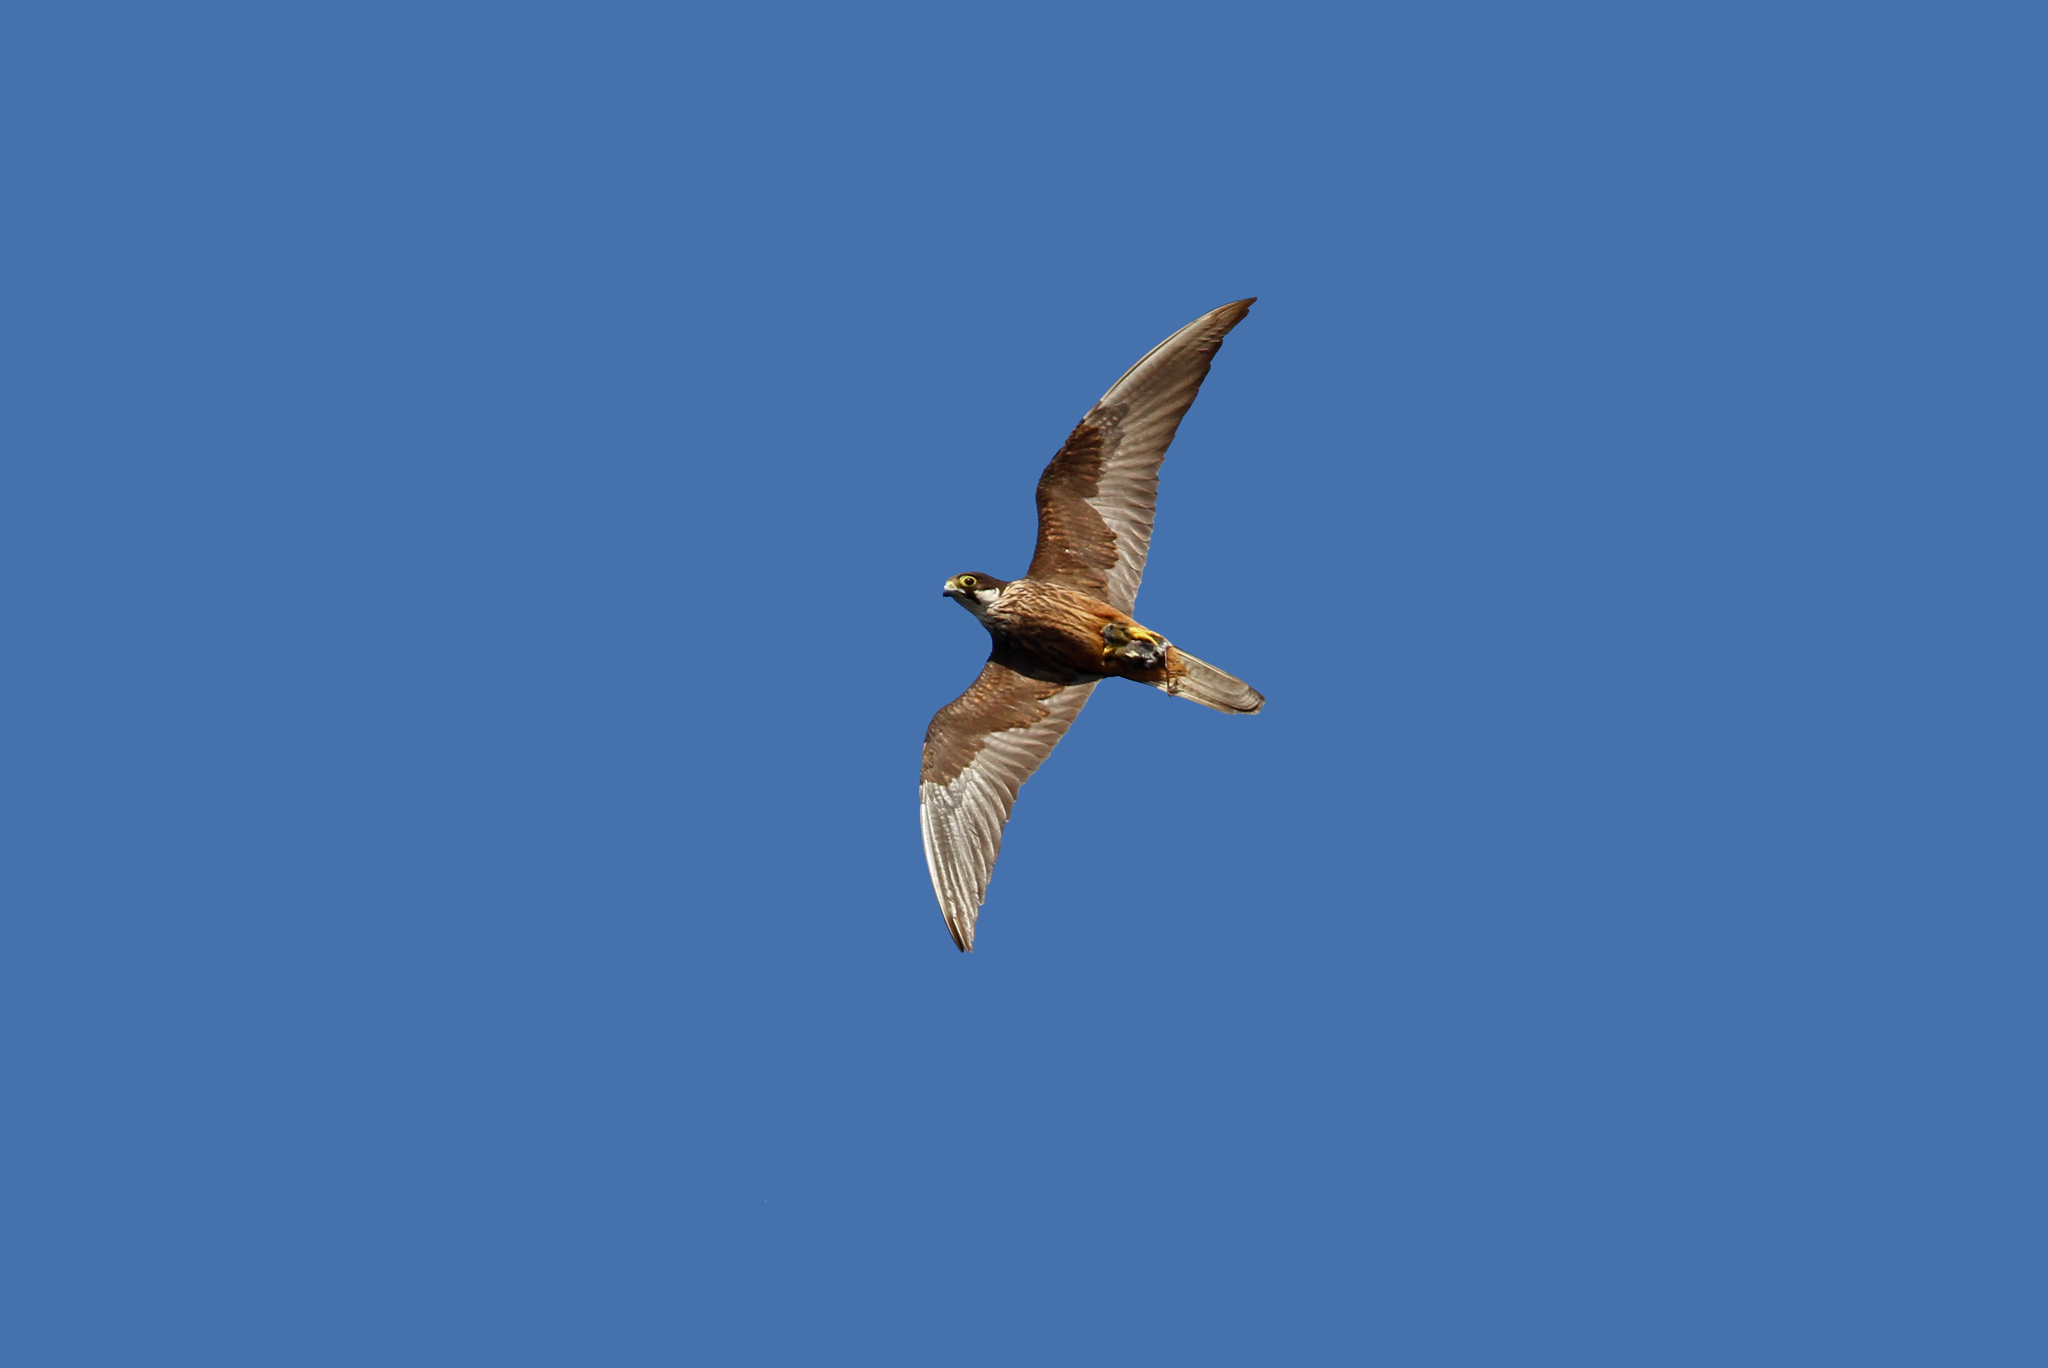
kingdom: Animalia
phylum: Chordata
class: Aves
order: Falconiformes
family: Falconidae
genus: Falco
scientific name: Falco eleonorae
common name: Eleonora's falcon
